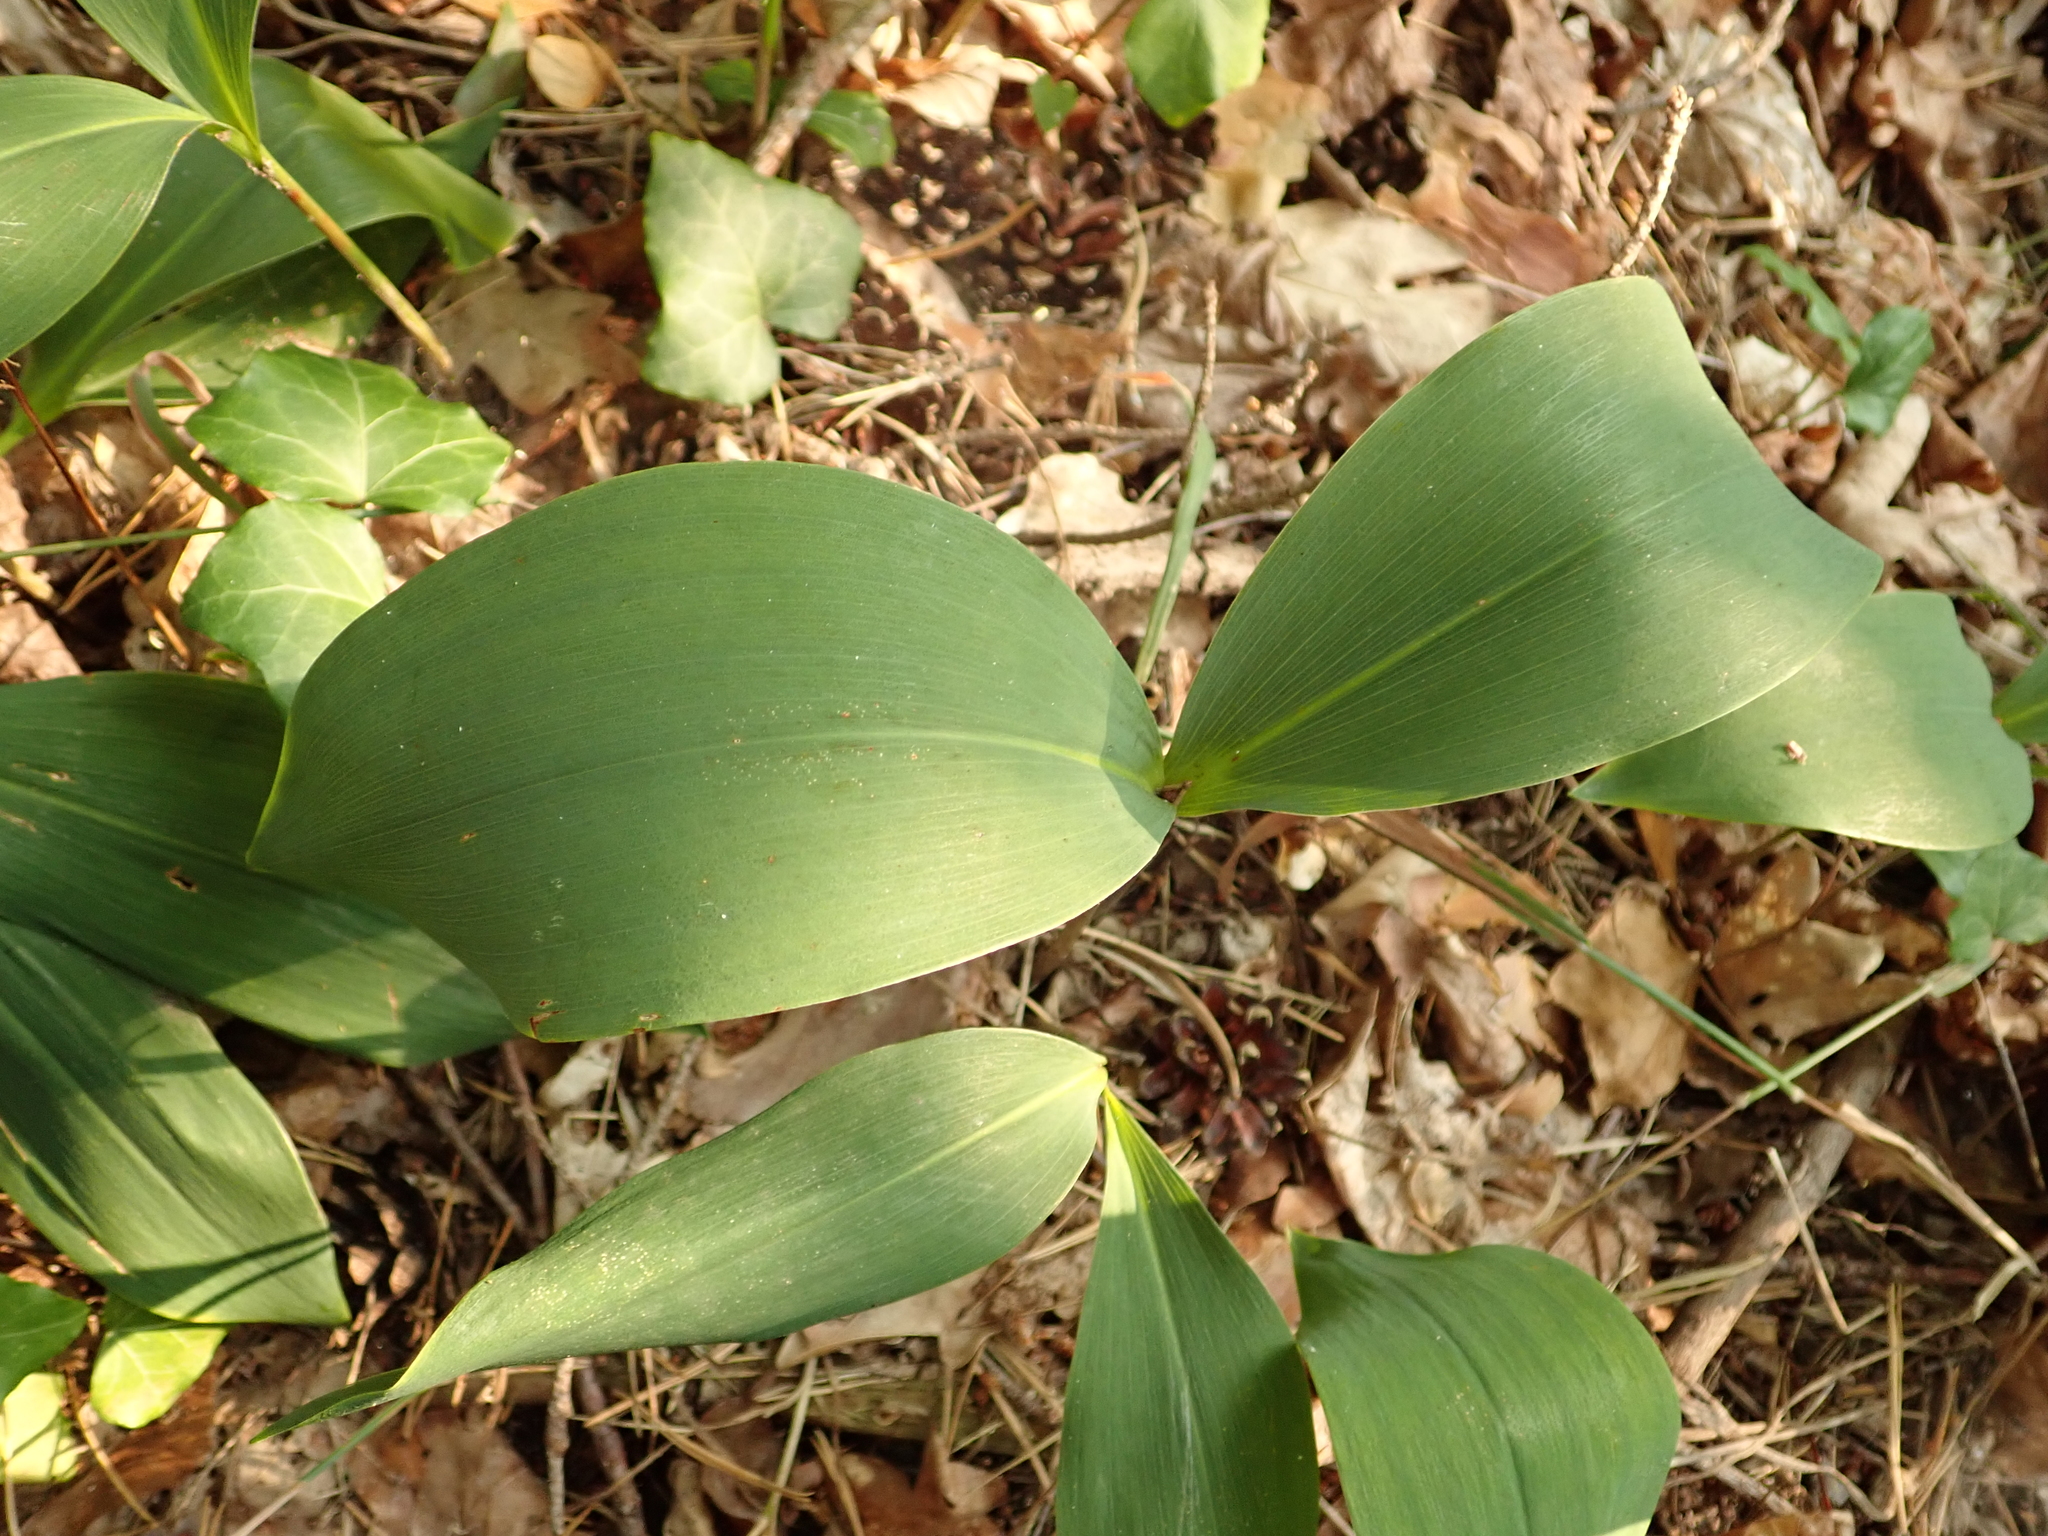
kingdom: Plantae
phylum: Tracheophyta
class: Liliopsida
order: Asparagales
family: Asparagaceae
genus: Convallaria
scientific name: Convallaria majalis
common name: Lily-of-the-valley
